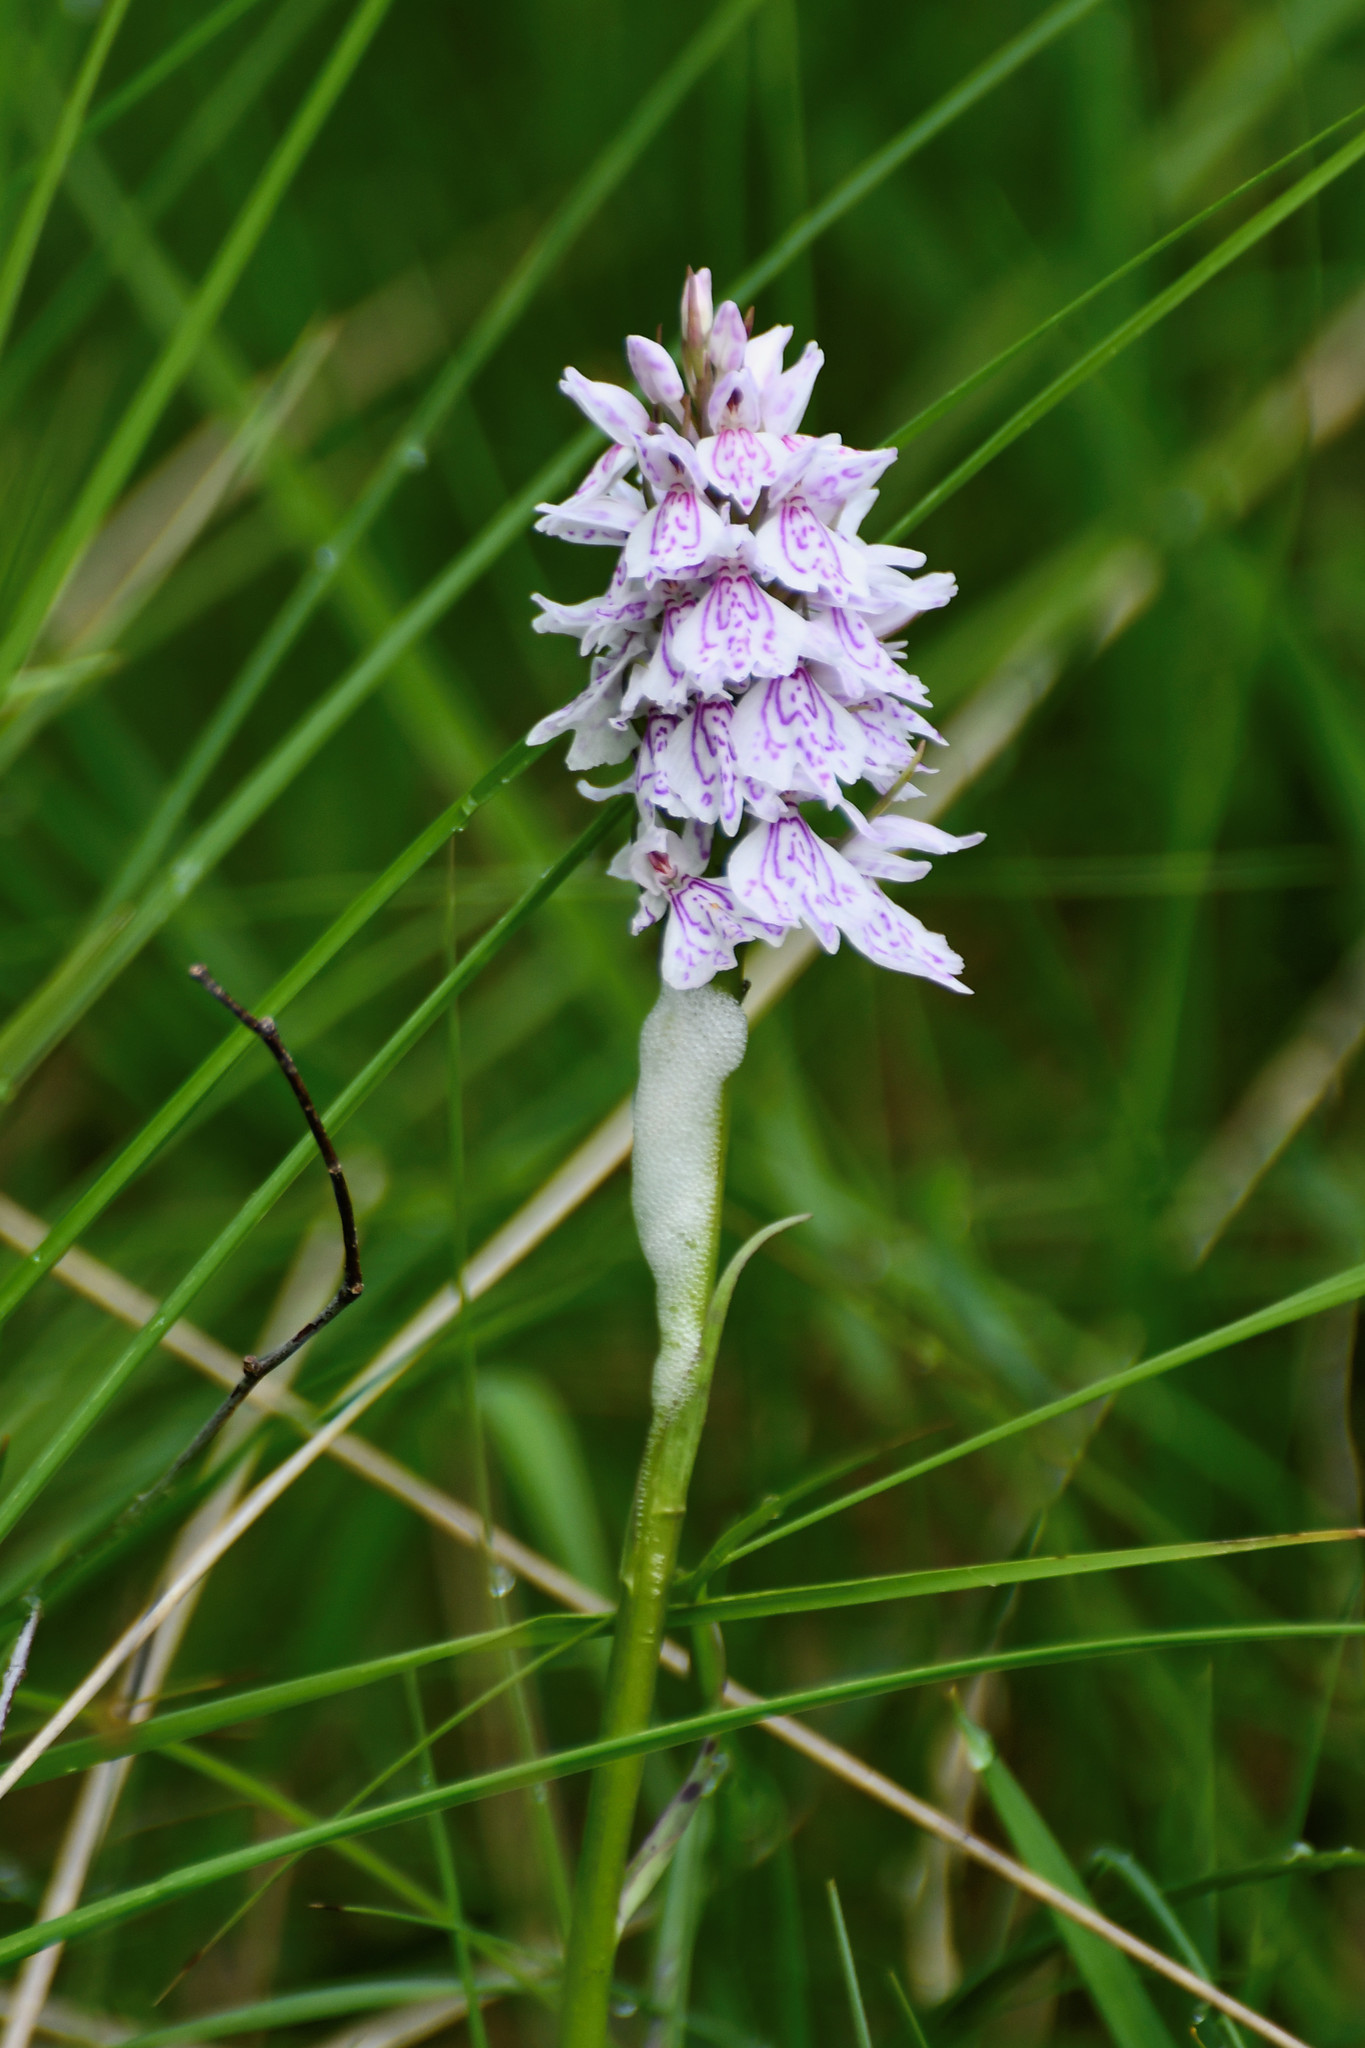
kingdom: Plantae
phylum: Tracheophyta
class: Liliopsida
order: Asparagales
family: Orchidaceae
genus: Dactylorhiza
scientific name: Dactylorhiza maculata
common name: Heath spotted-orchid
